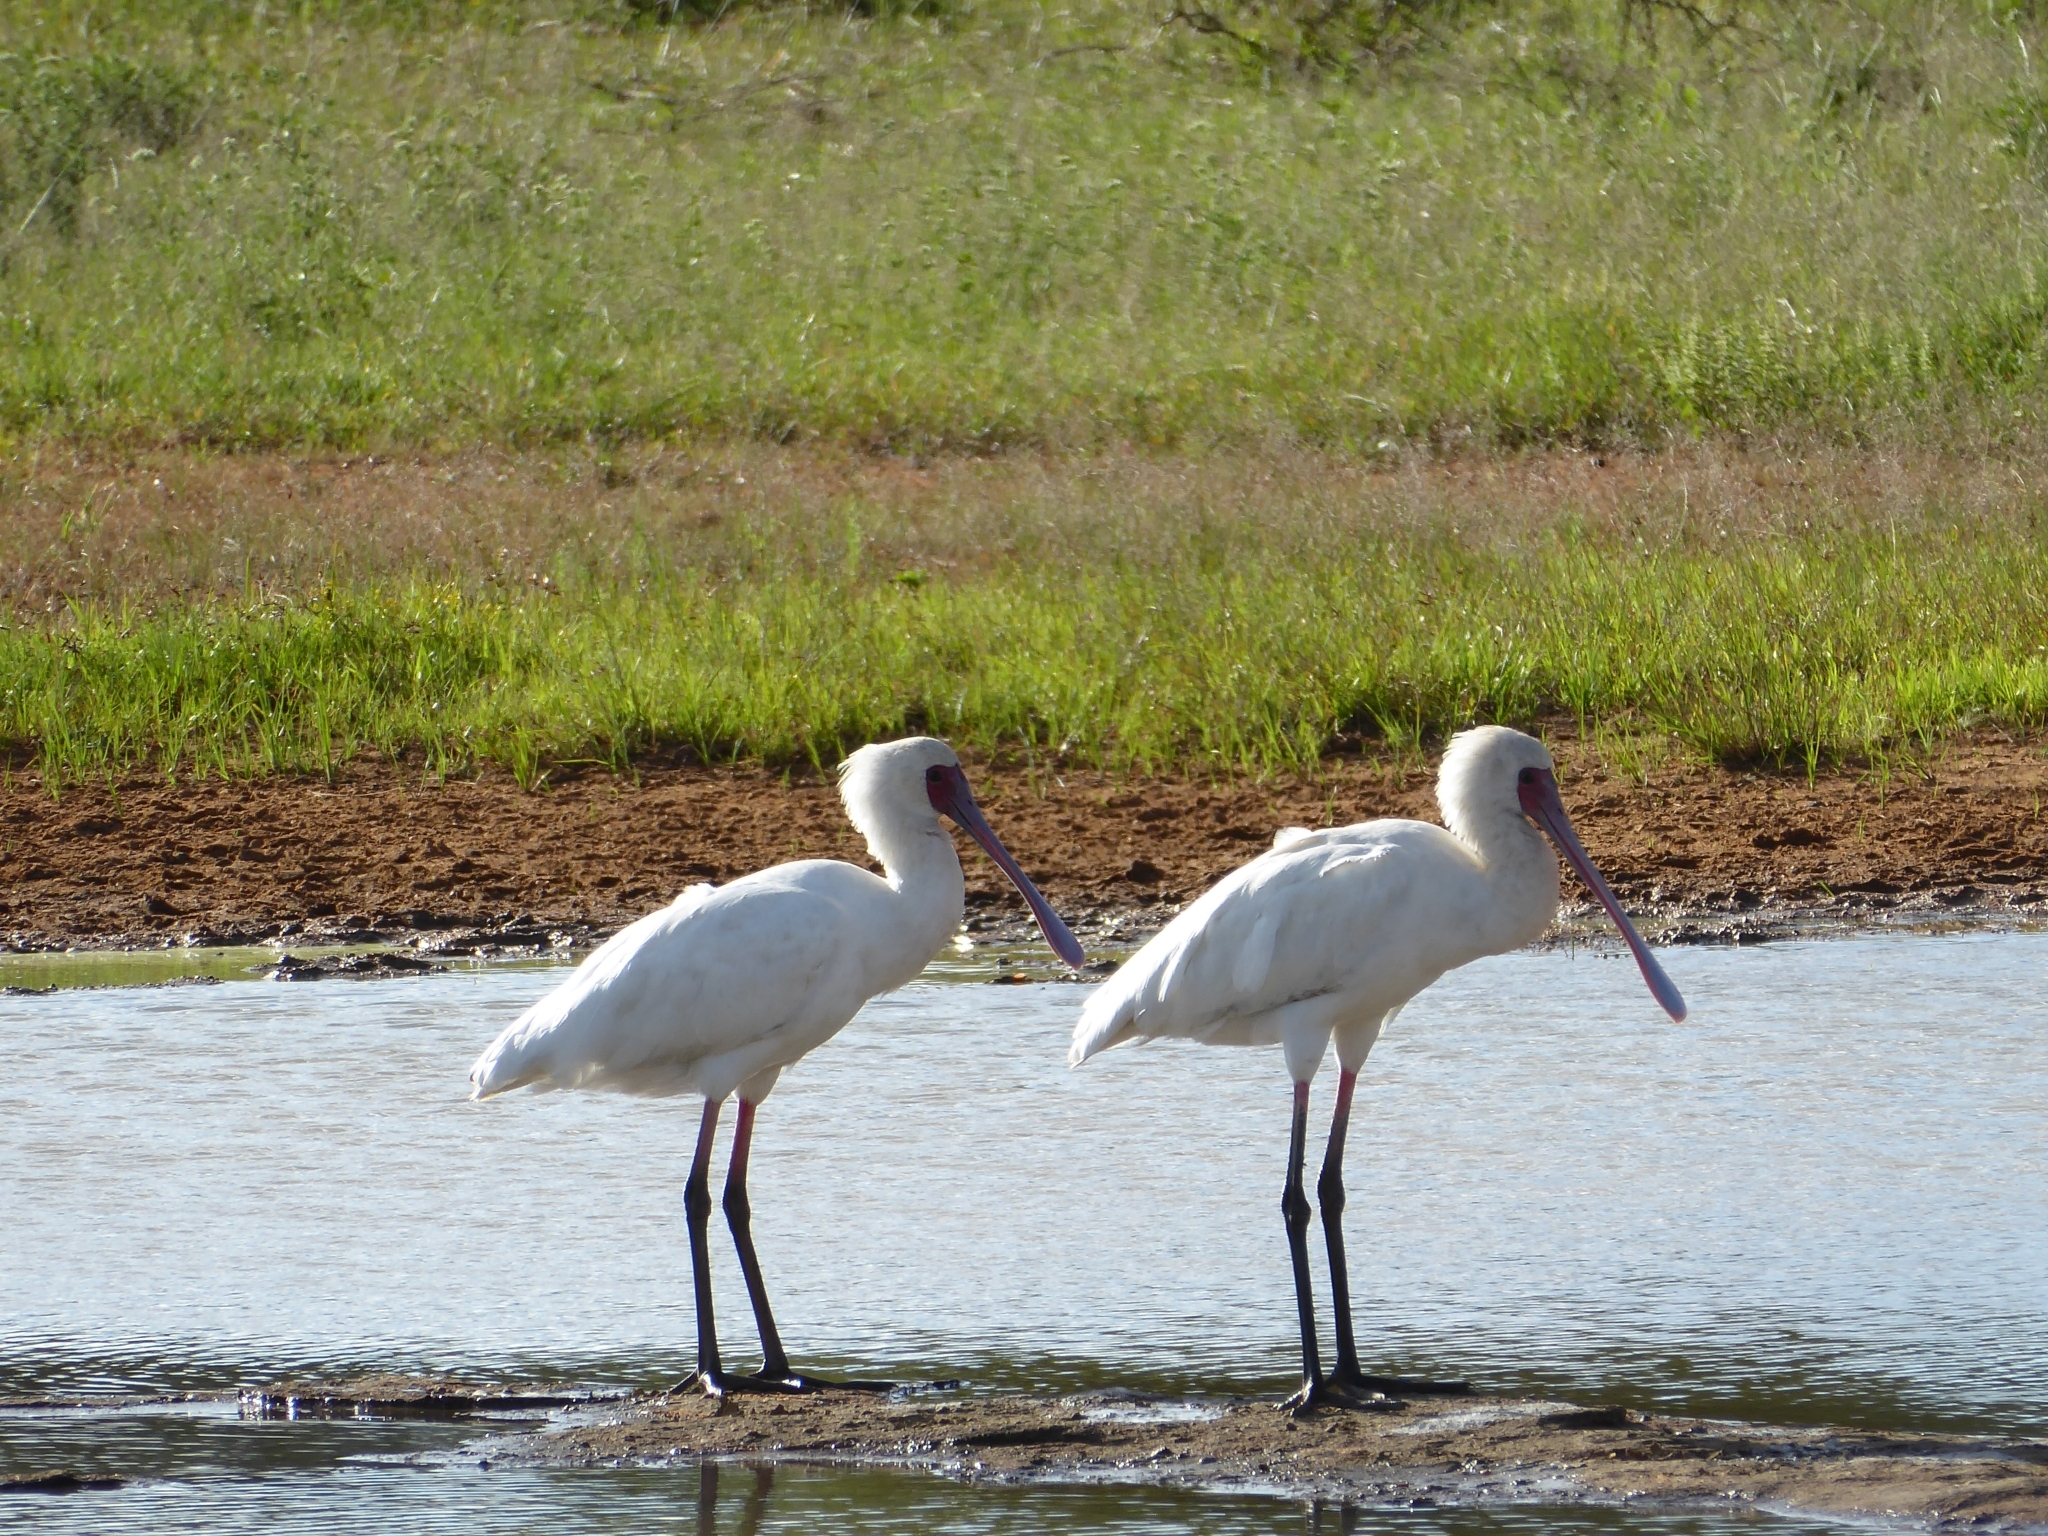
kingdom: Animalia
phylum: Chordata
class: Aves
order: Pelecaniformes
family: Threskiornithidae
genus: Platalea
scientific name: Platalea alba
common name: African spoonbill
